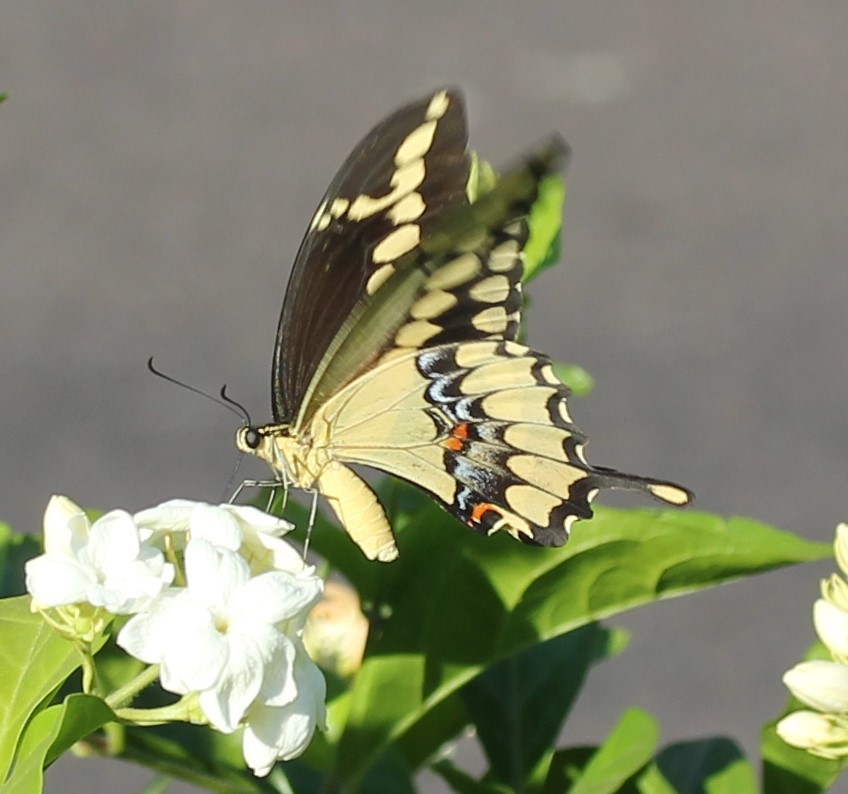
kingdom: Animalia
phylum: Arthropoda
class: Insecta
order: Lepidoptera
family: Papilionidae
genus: Papilio
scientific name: Papilio rumiko
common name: Western giant swallowtail
